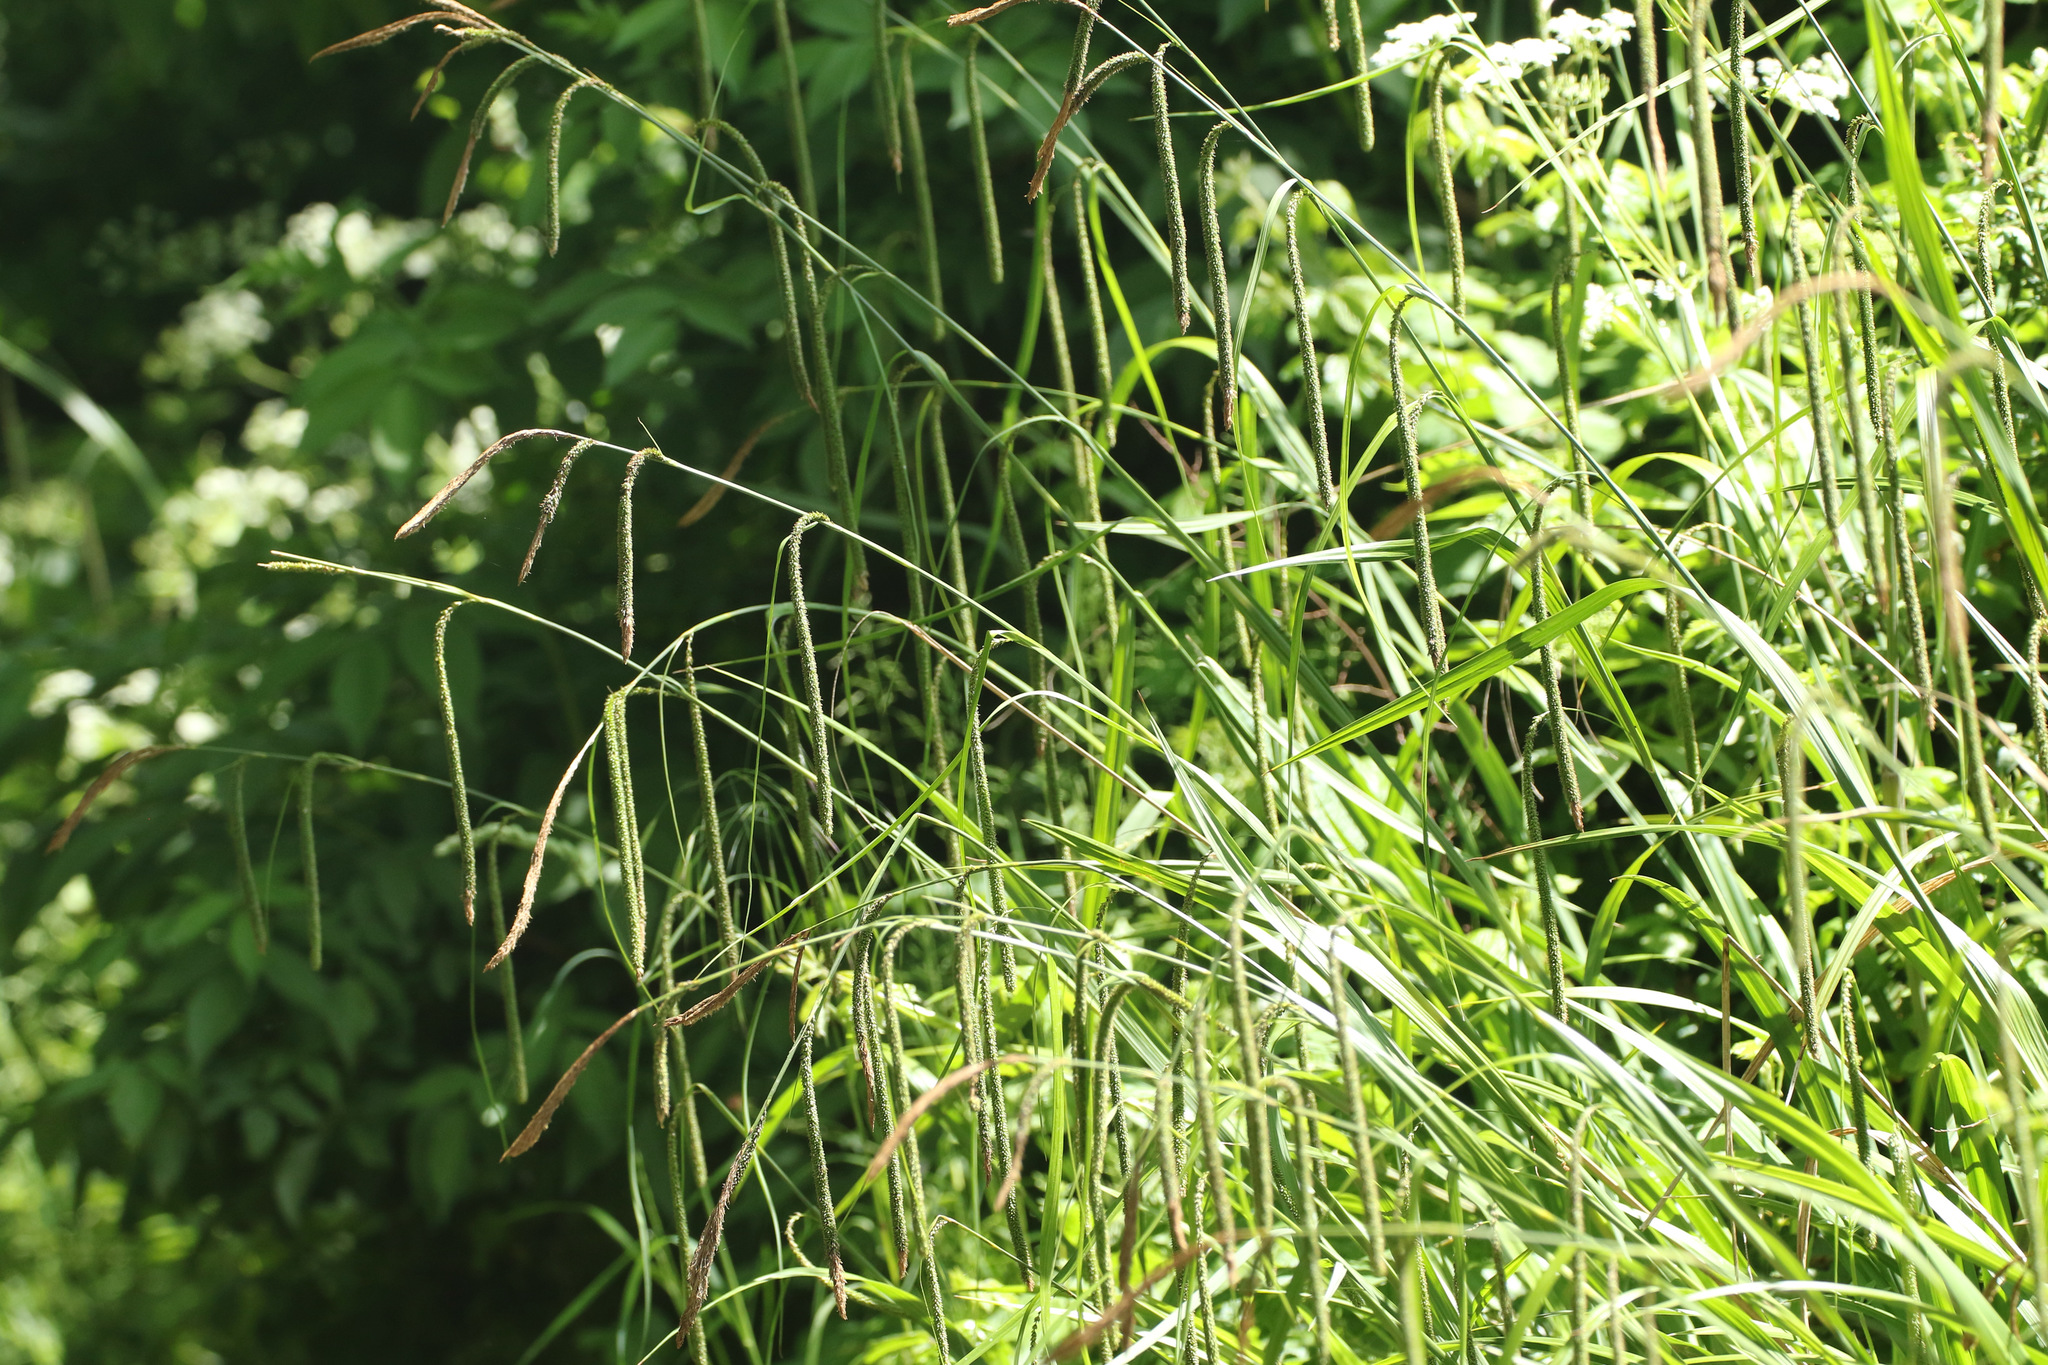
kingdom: Plantae
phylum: Tracheophyta
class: Liliopsida
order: Poales
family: Cyperaceae
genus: Carex
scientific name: Carex pendula
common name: Pendulous sedge
